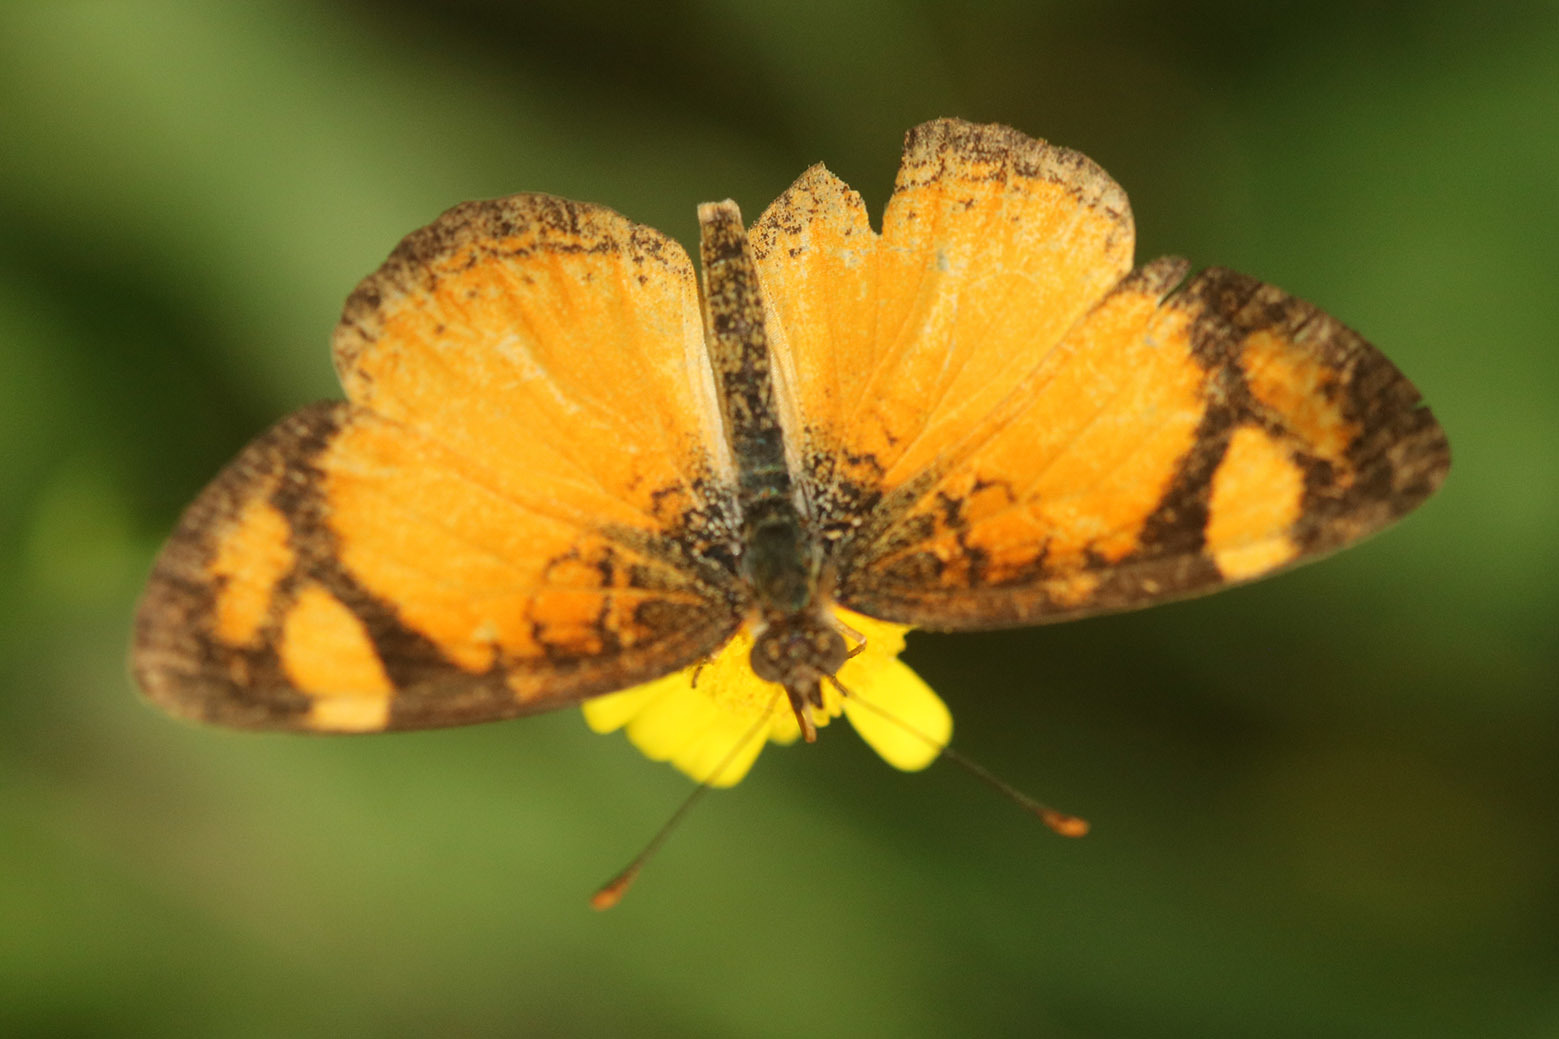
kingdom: Animalia
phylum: Arthropoda
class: Insecta
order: Lepidoptera
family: Nymphalidae
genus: Tegosa
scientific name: Tegosa claudina
